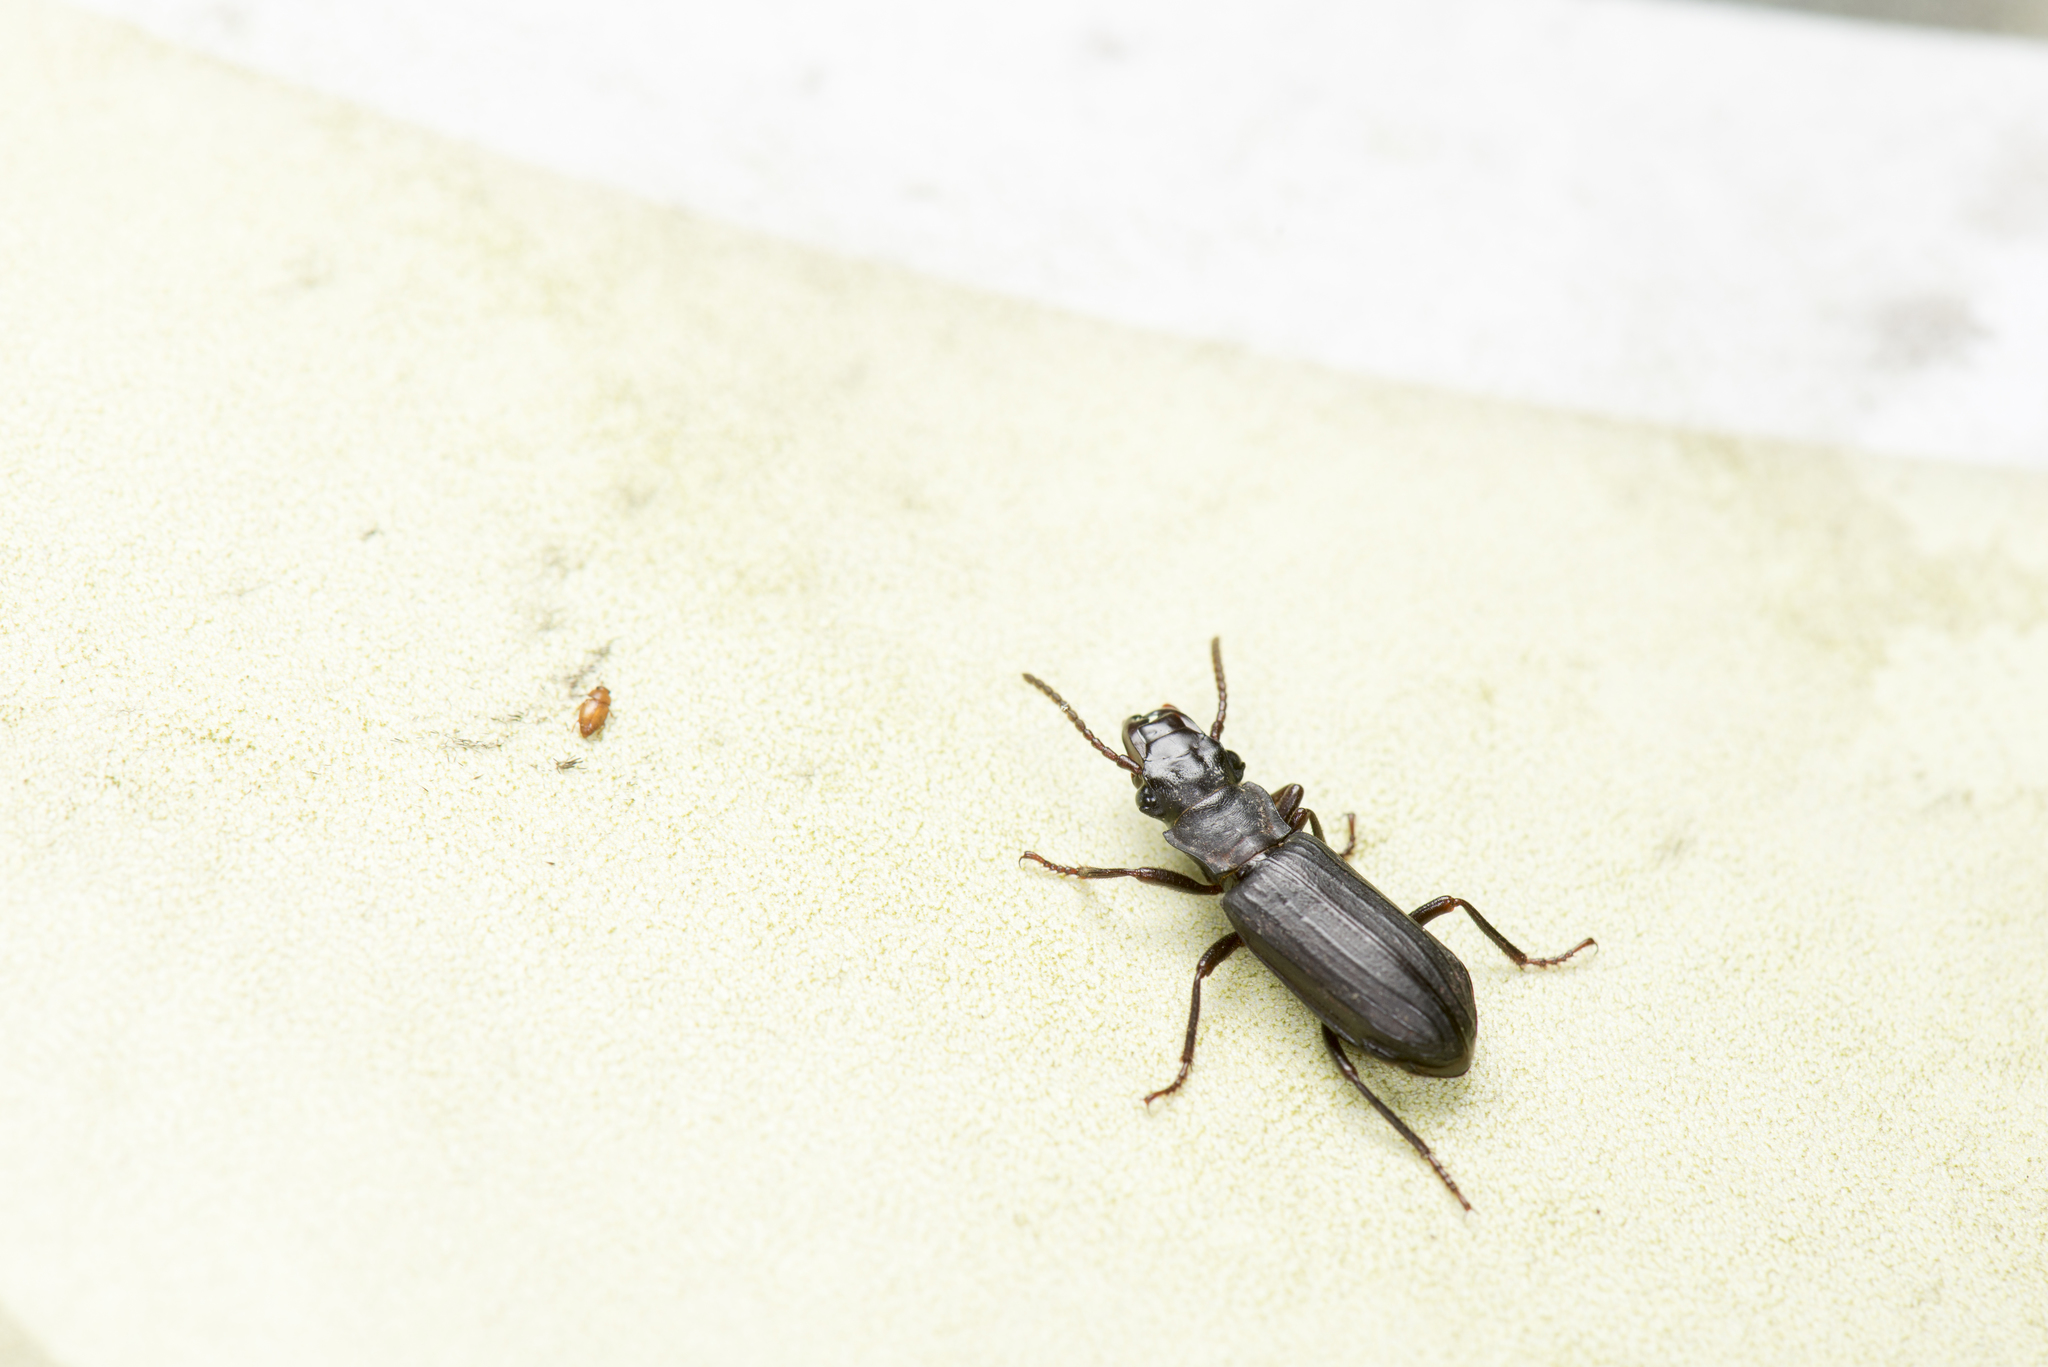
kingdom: Animalia
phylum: Arthropoda
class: Insecta
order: Coleoptera
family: Carabidae
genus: Pseudozaena
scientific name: Pseudozaena tricostata
